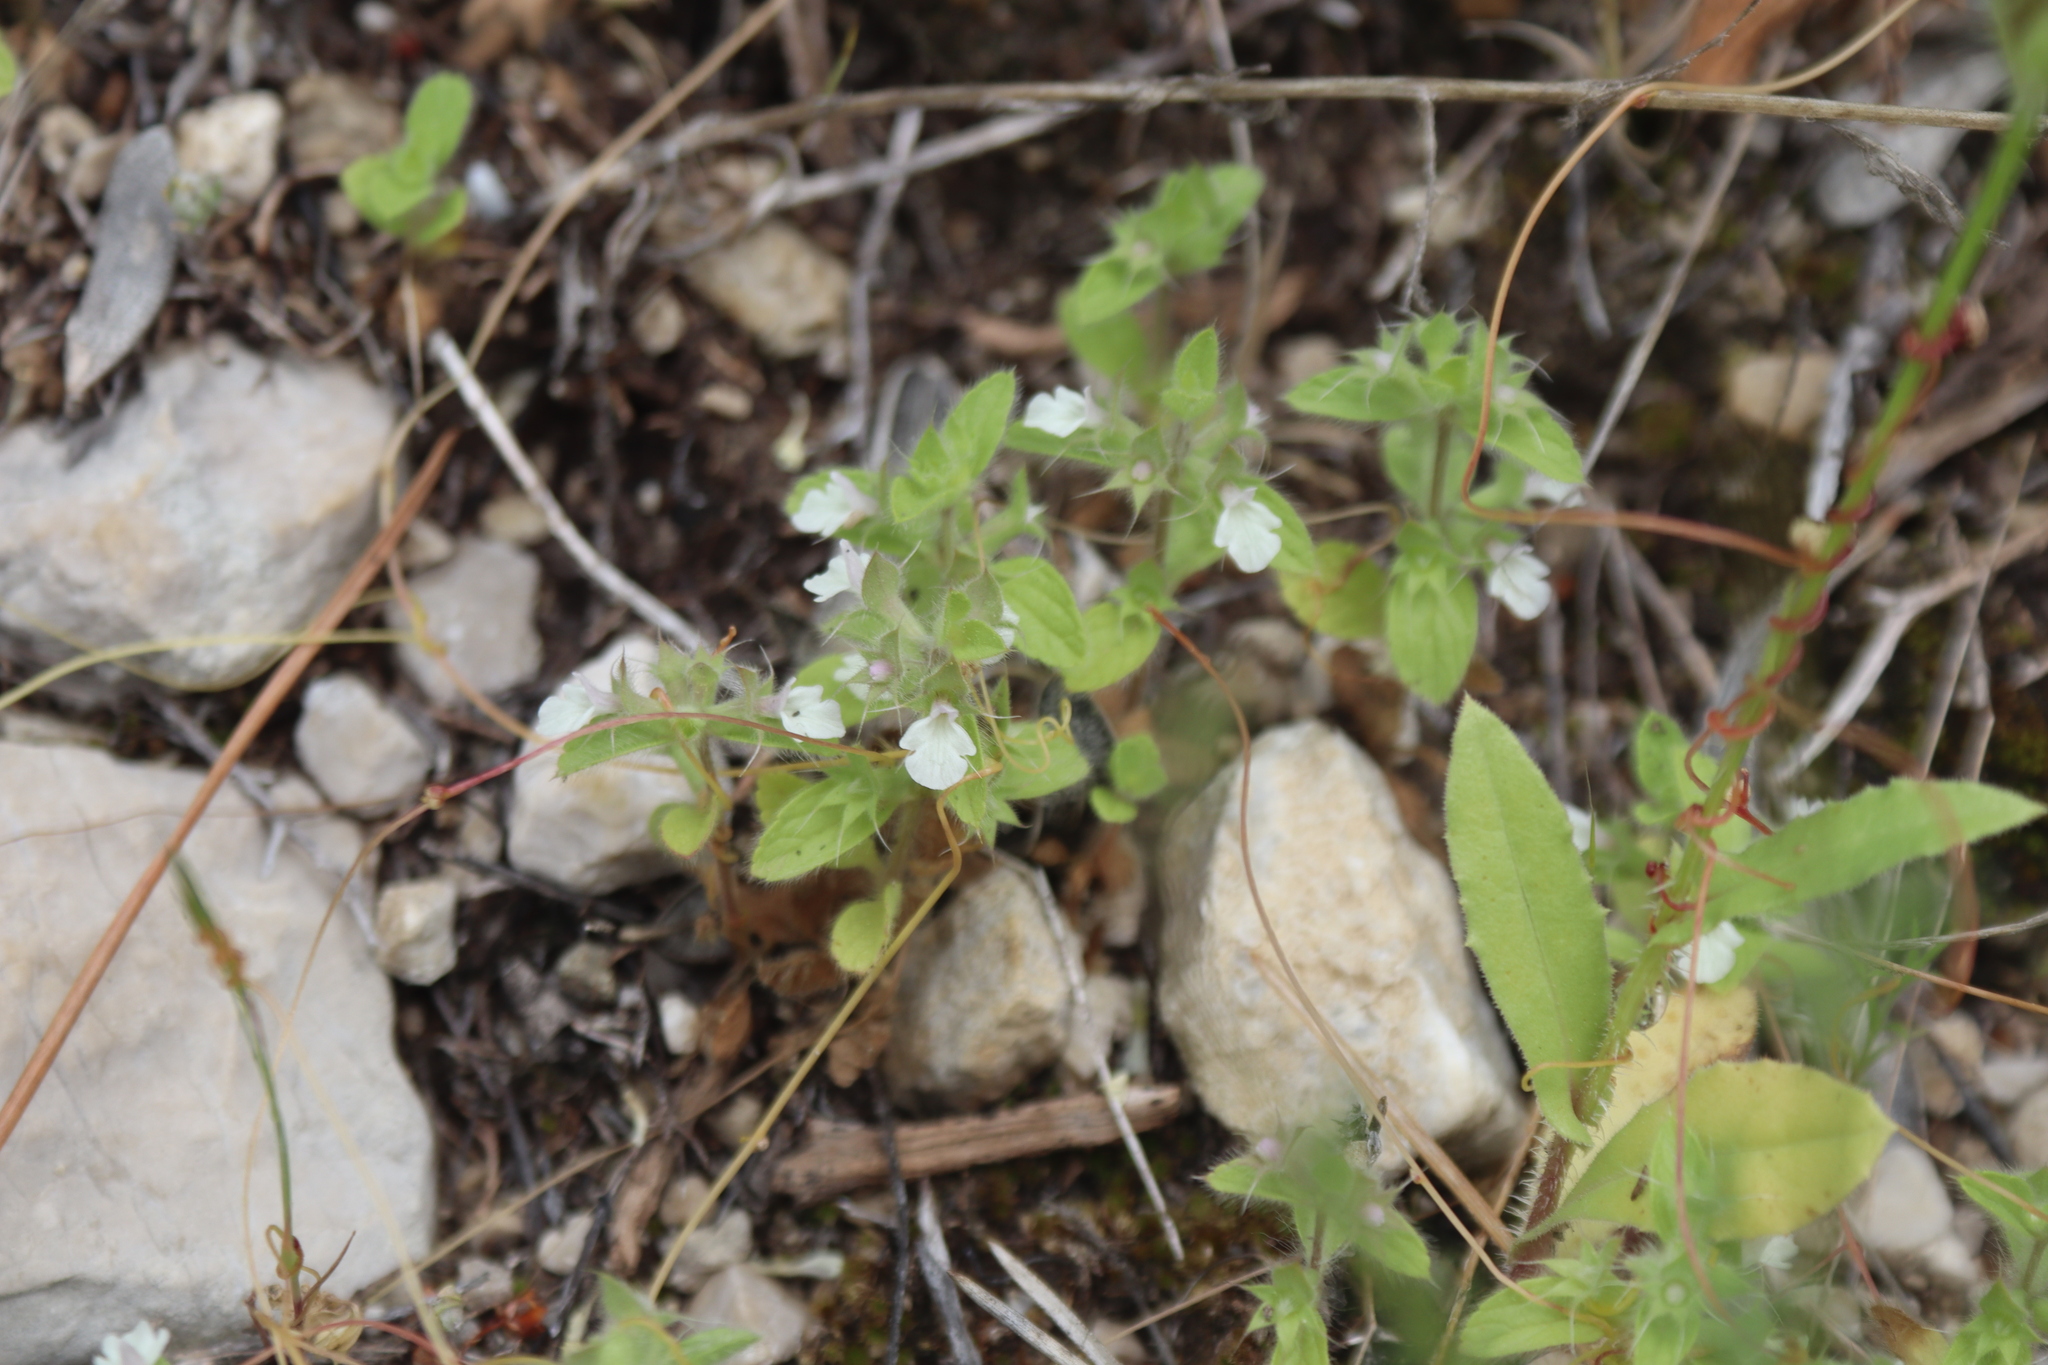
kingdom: Plantae
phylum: Tracheophyta
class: Magnoliopsida
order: Lamiales
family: Lamiaceae
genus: Sideritis
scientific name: Sideritis romana
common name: Simplebeak ironwort
